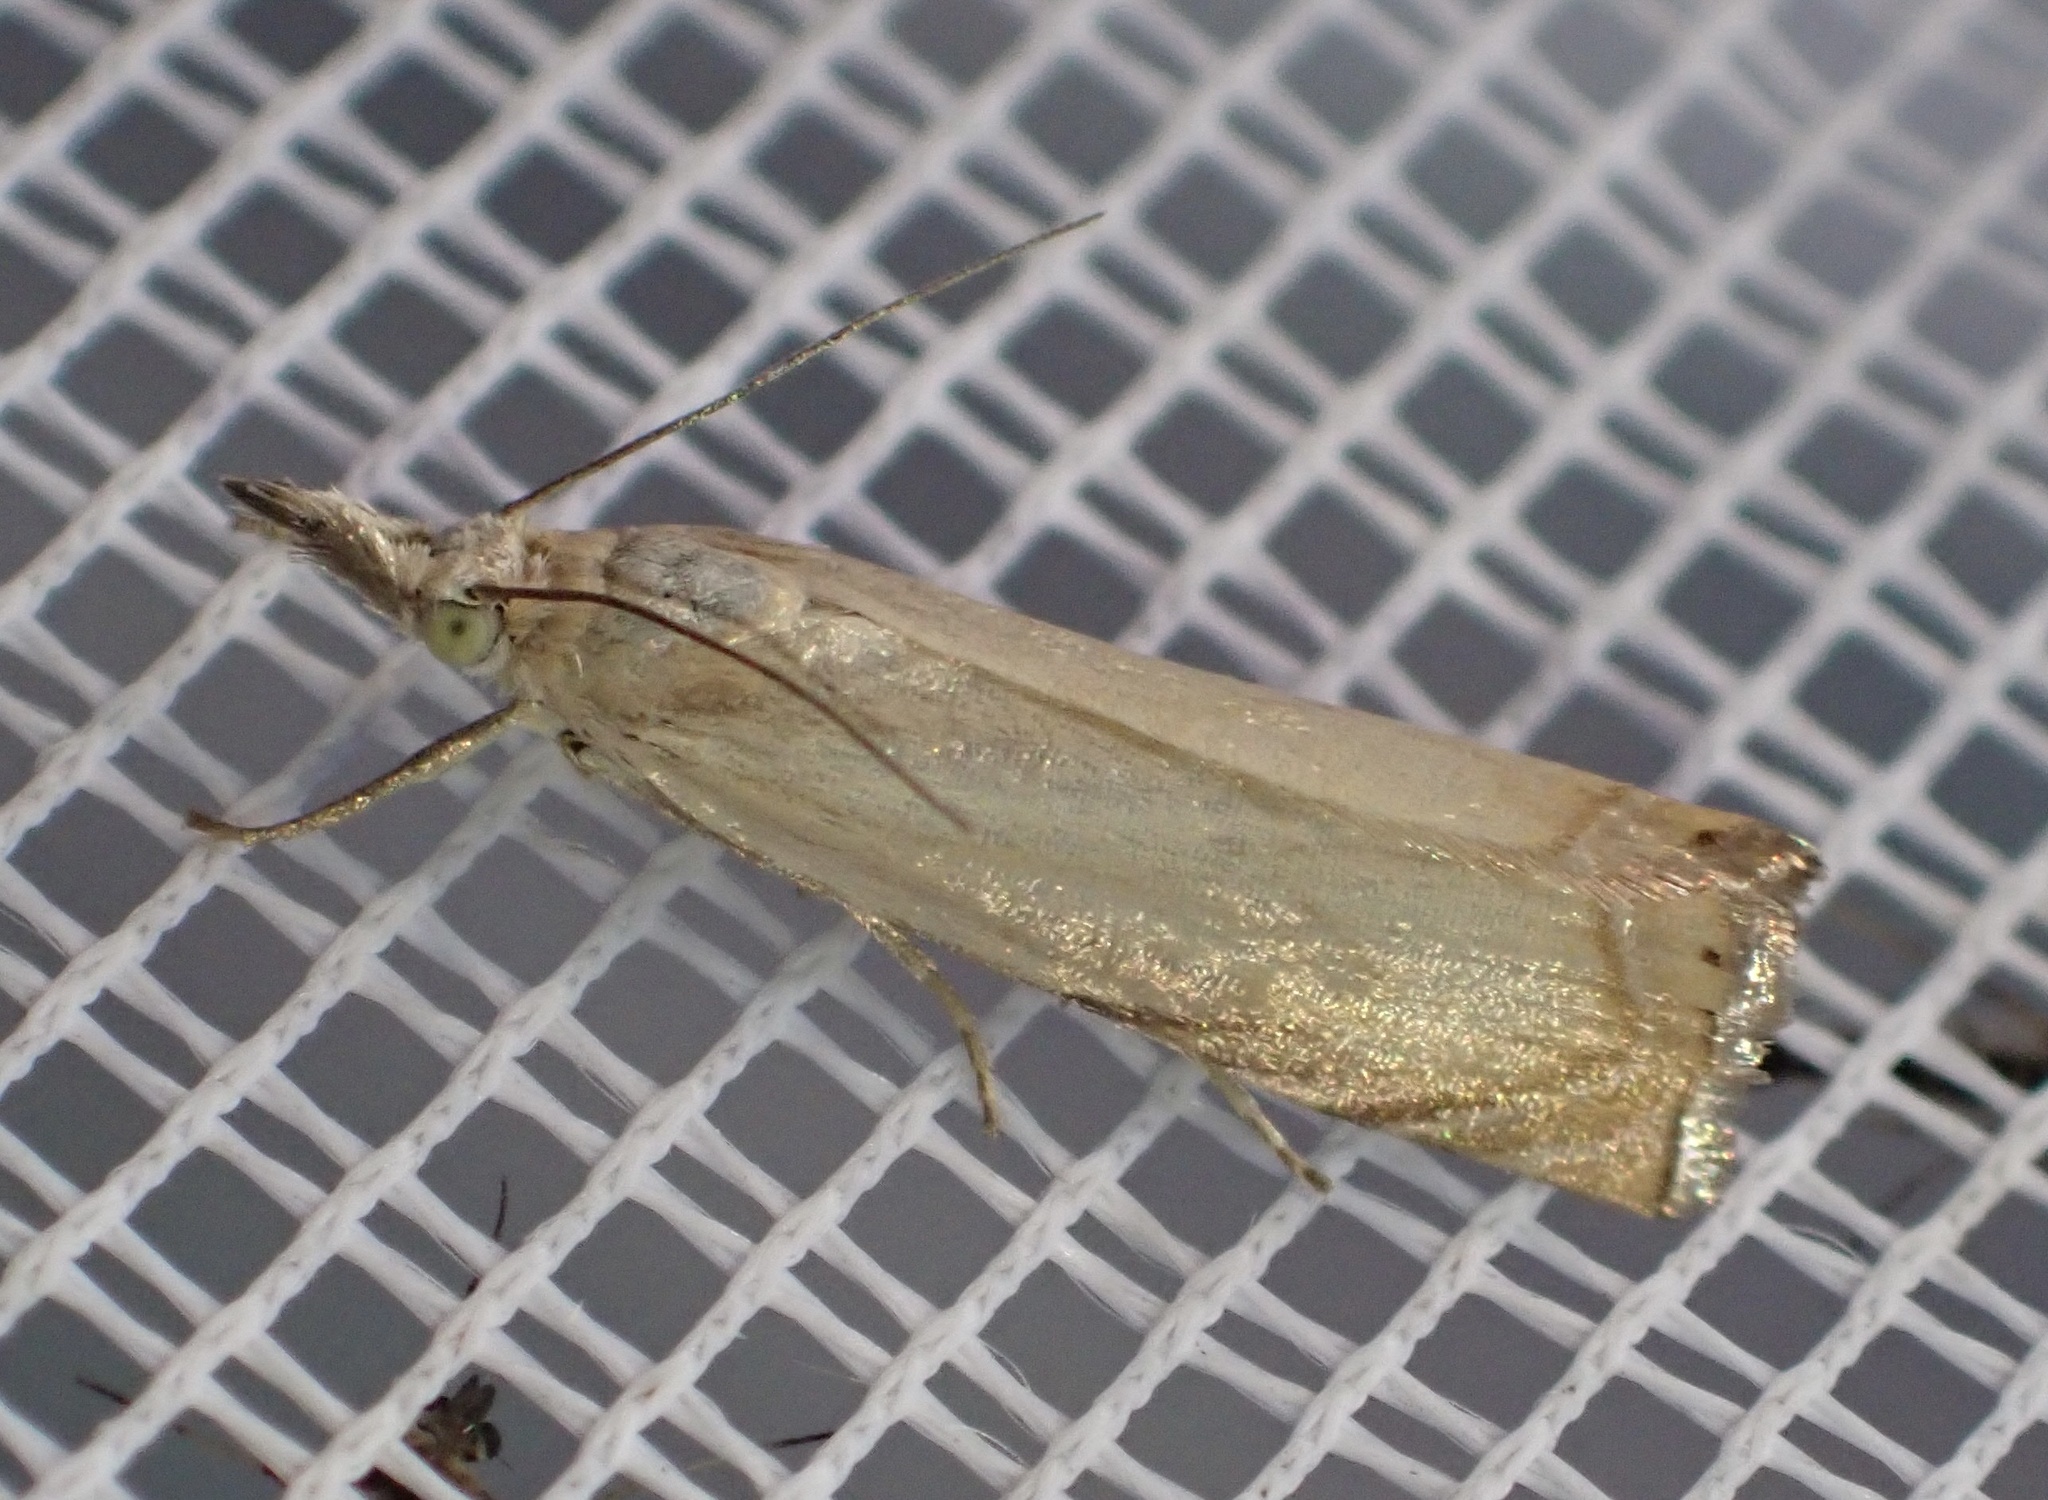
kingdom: Animalia
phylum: Arthropoda
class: Insecta
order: Lepidoptera
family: Crambidae
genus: Chrysoteuchia
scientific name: Chrysoteuchia culmella
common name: Garden grass-veneer
